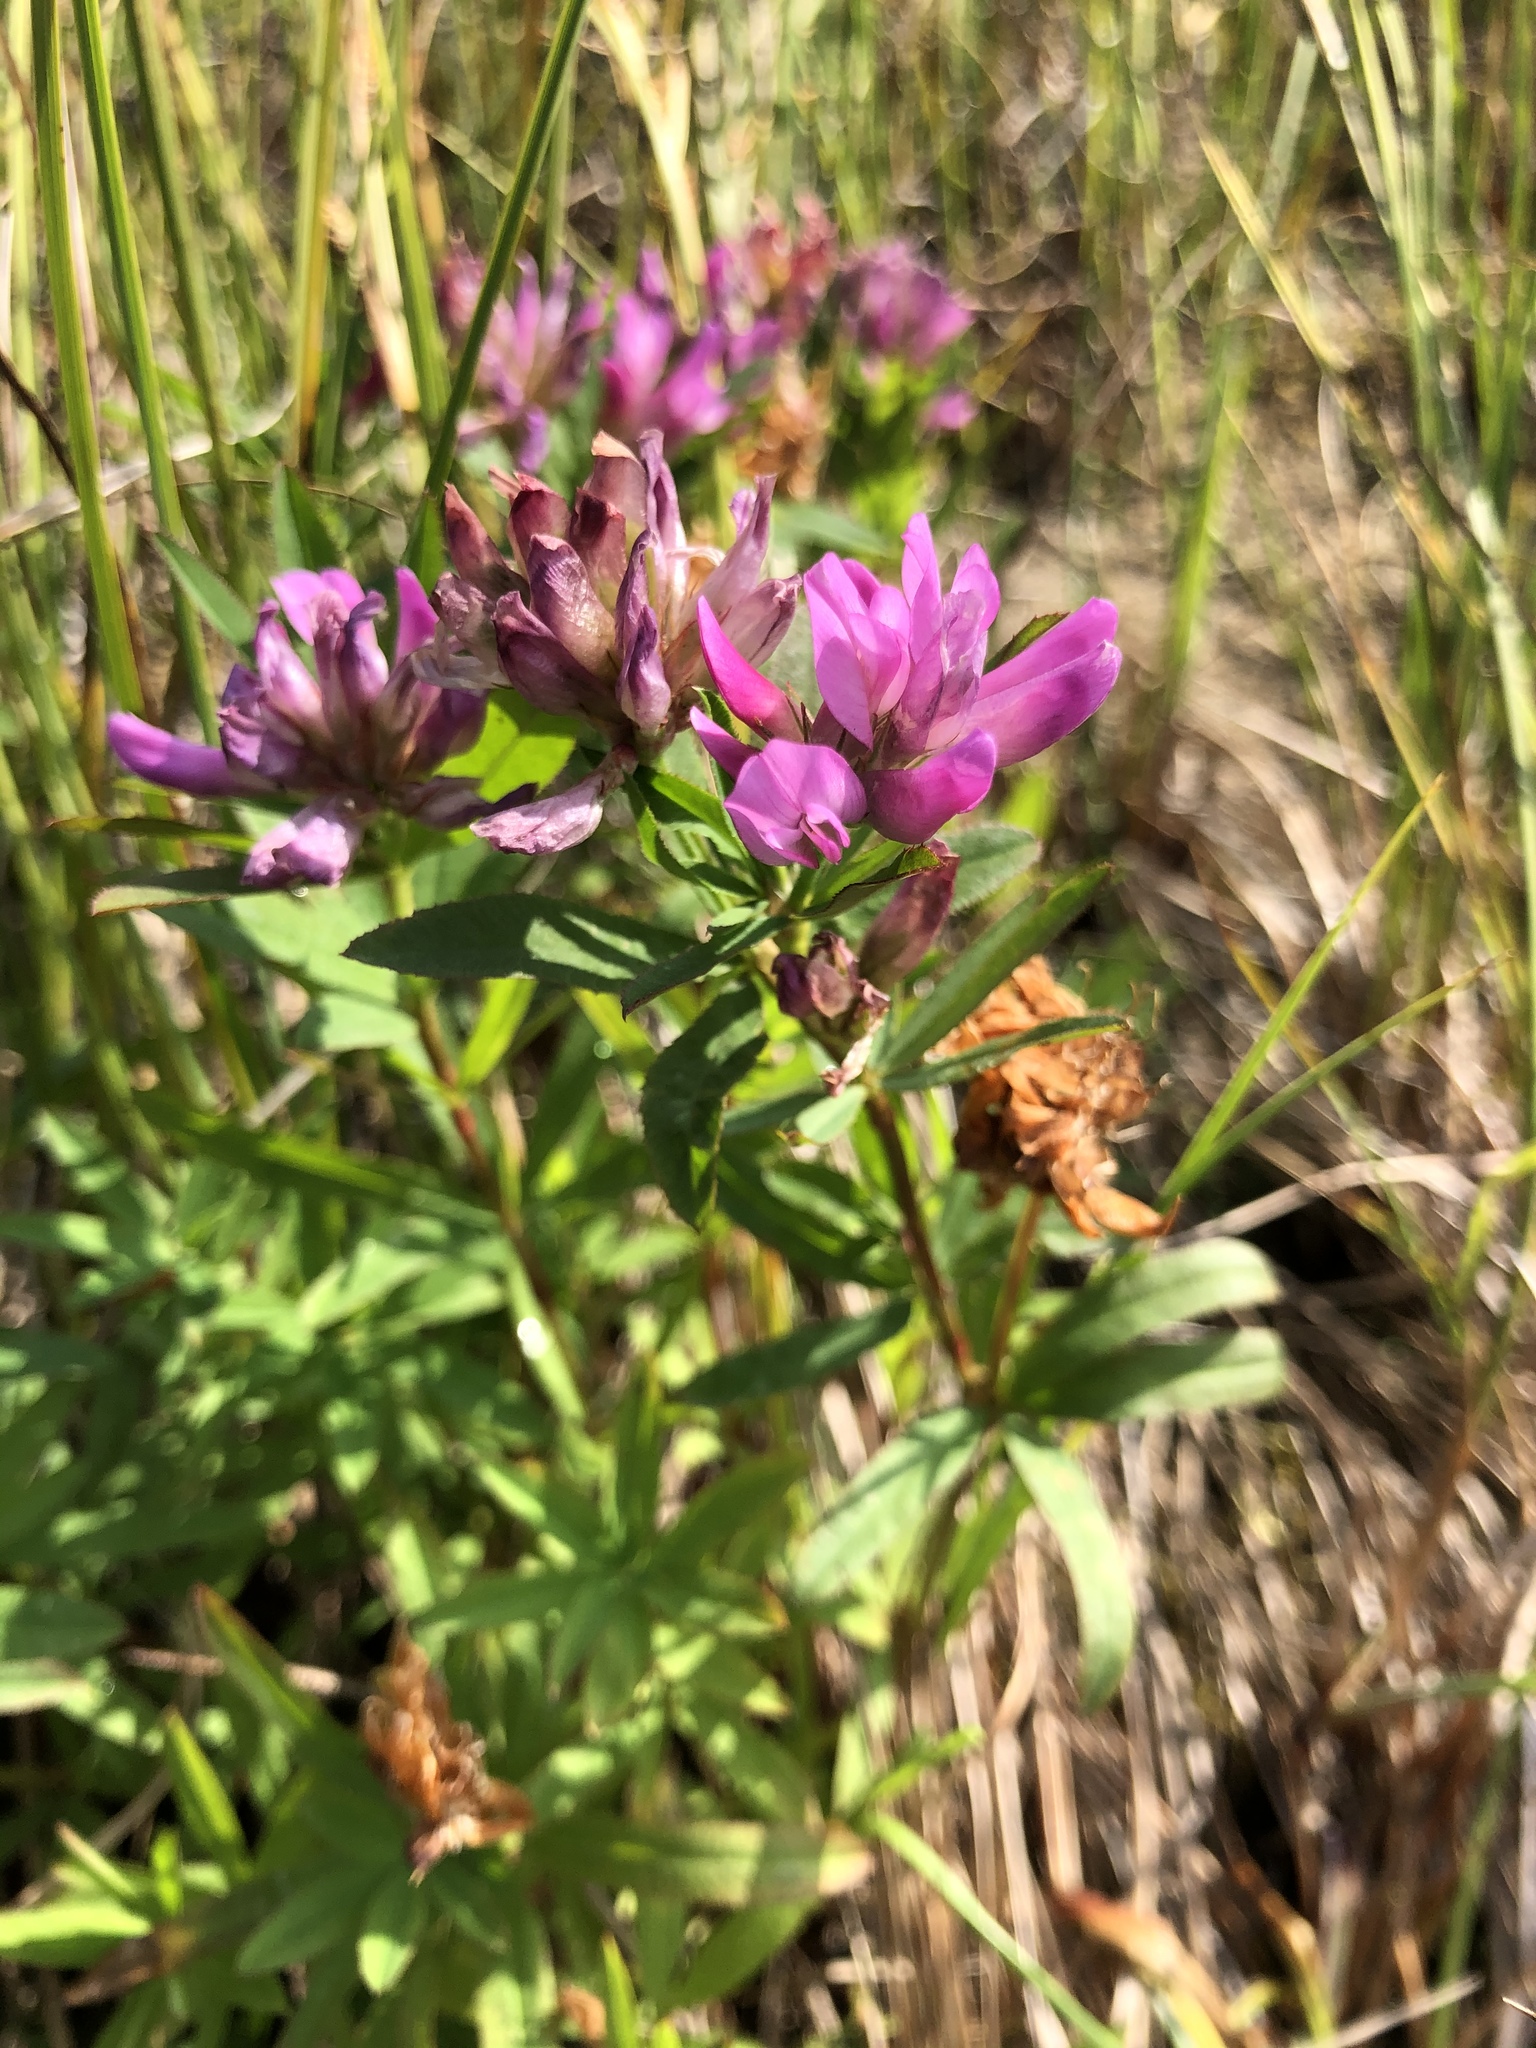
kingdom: Plantae
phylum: Tracheophyta
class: Magnoliopsida
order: Fabales
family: Fabaceae
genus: Trifolium
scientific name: Trifolium lupinaster
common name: Lupine clover
